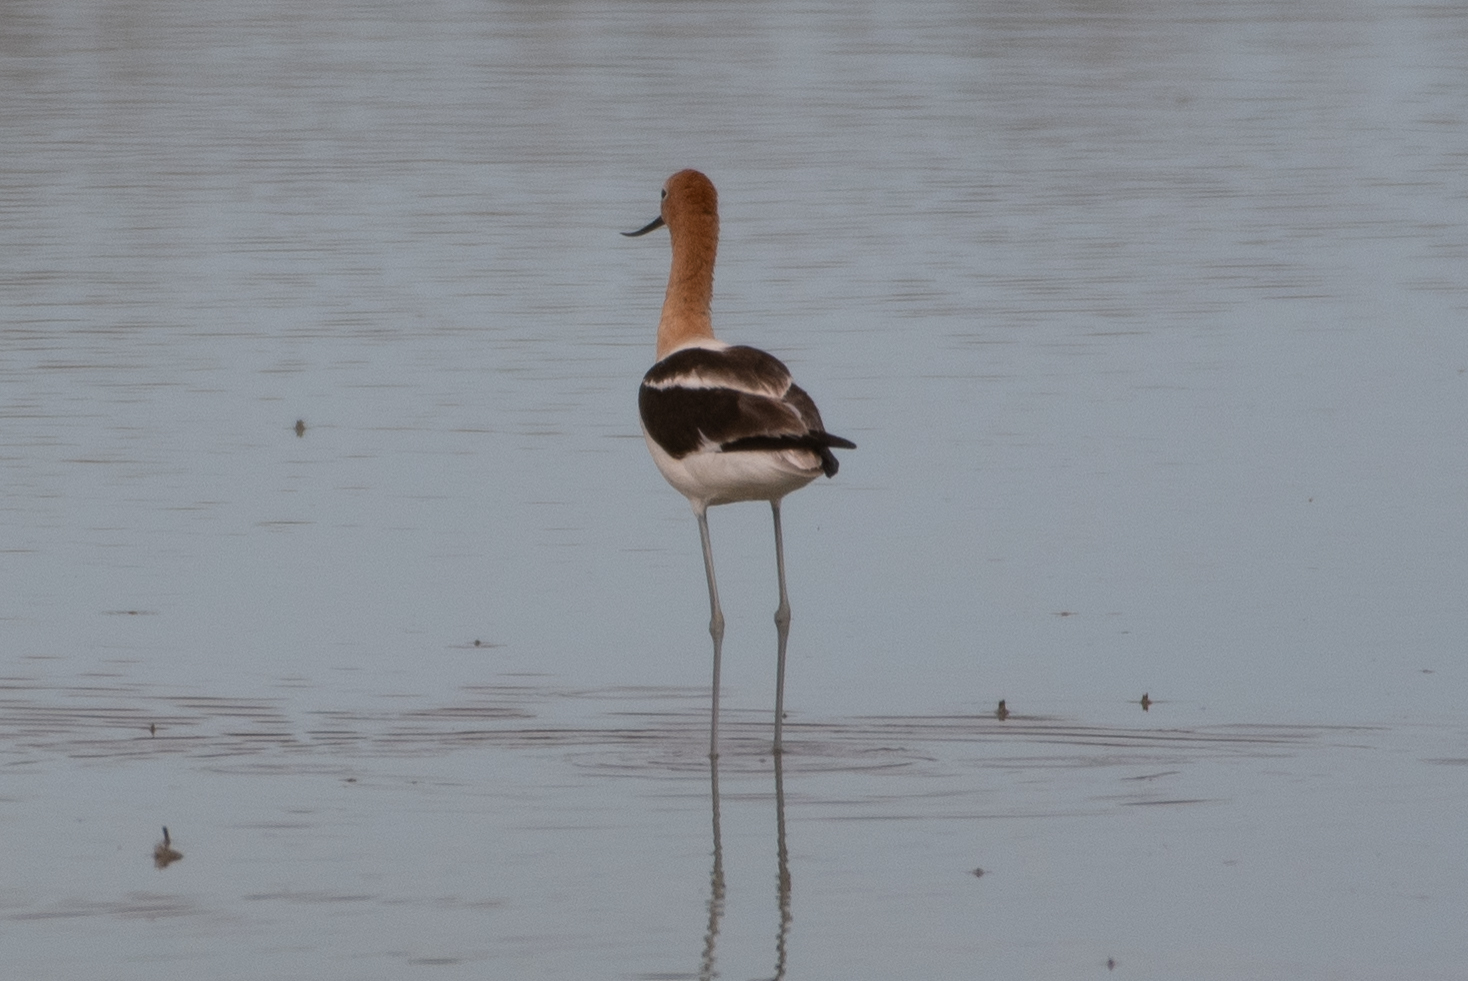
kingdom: Animalia
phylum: Chordata
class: Aves
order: Charadriiformes
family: Recurvirostridae
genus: Recurvirostra
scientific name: Recurvirostra americana
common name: American avocet
